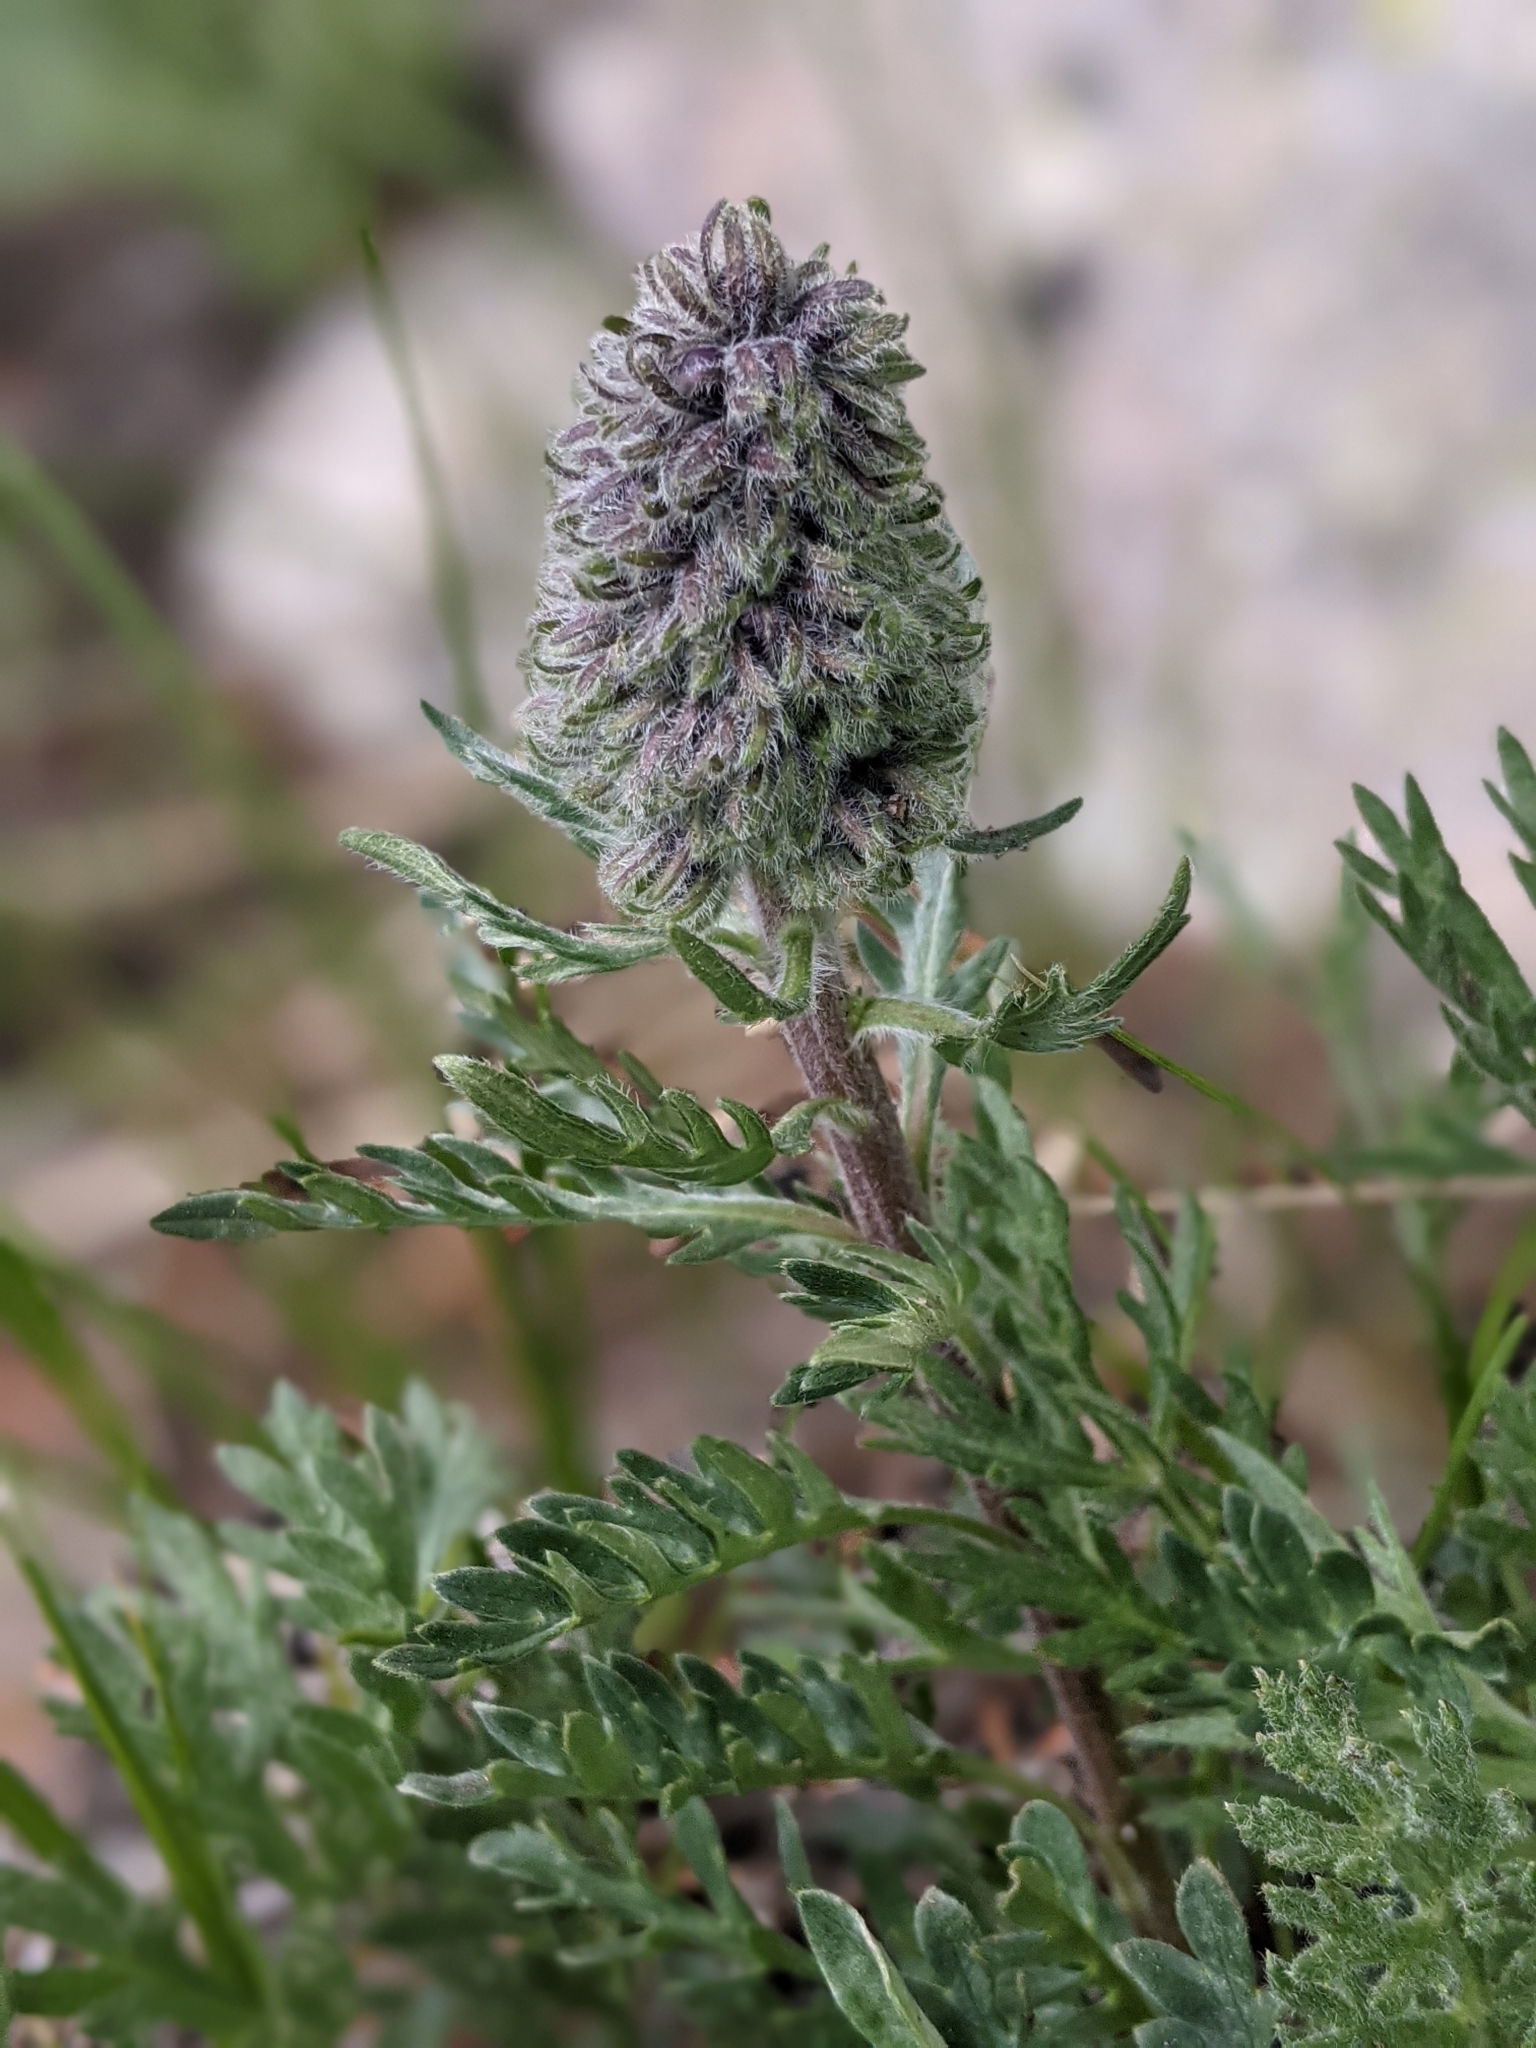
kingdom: Plantae
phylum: Tracheophyta
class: Magnoliopsida
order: Boraginales
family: Hydrophyllaceae
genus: Phacelia
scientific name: Phacelia sericea
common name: Silky phacelia
